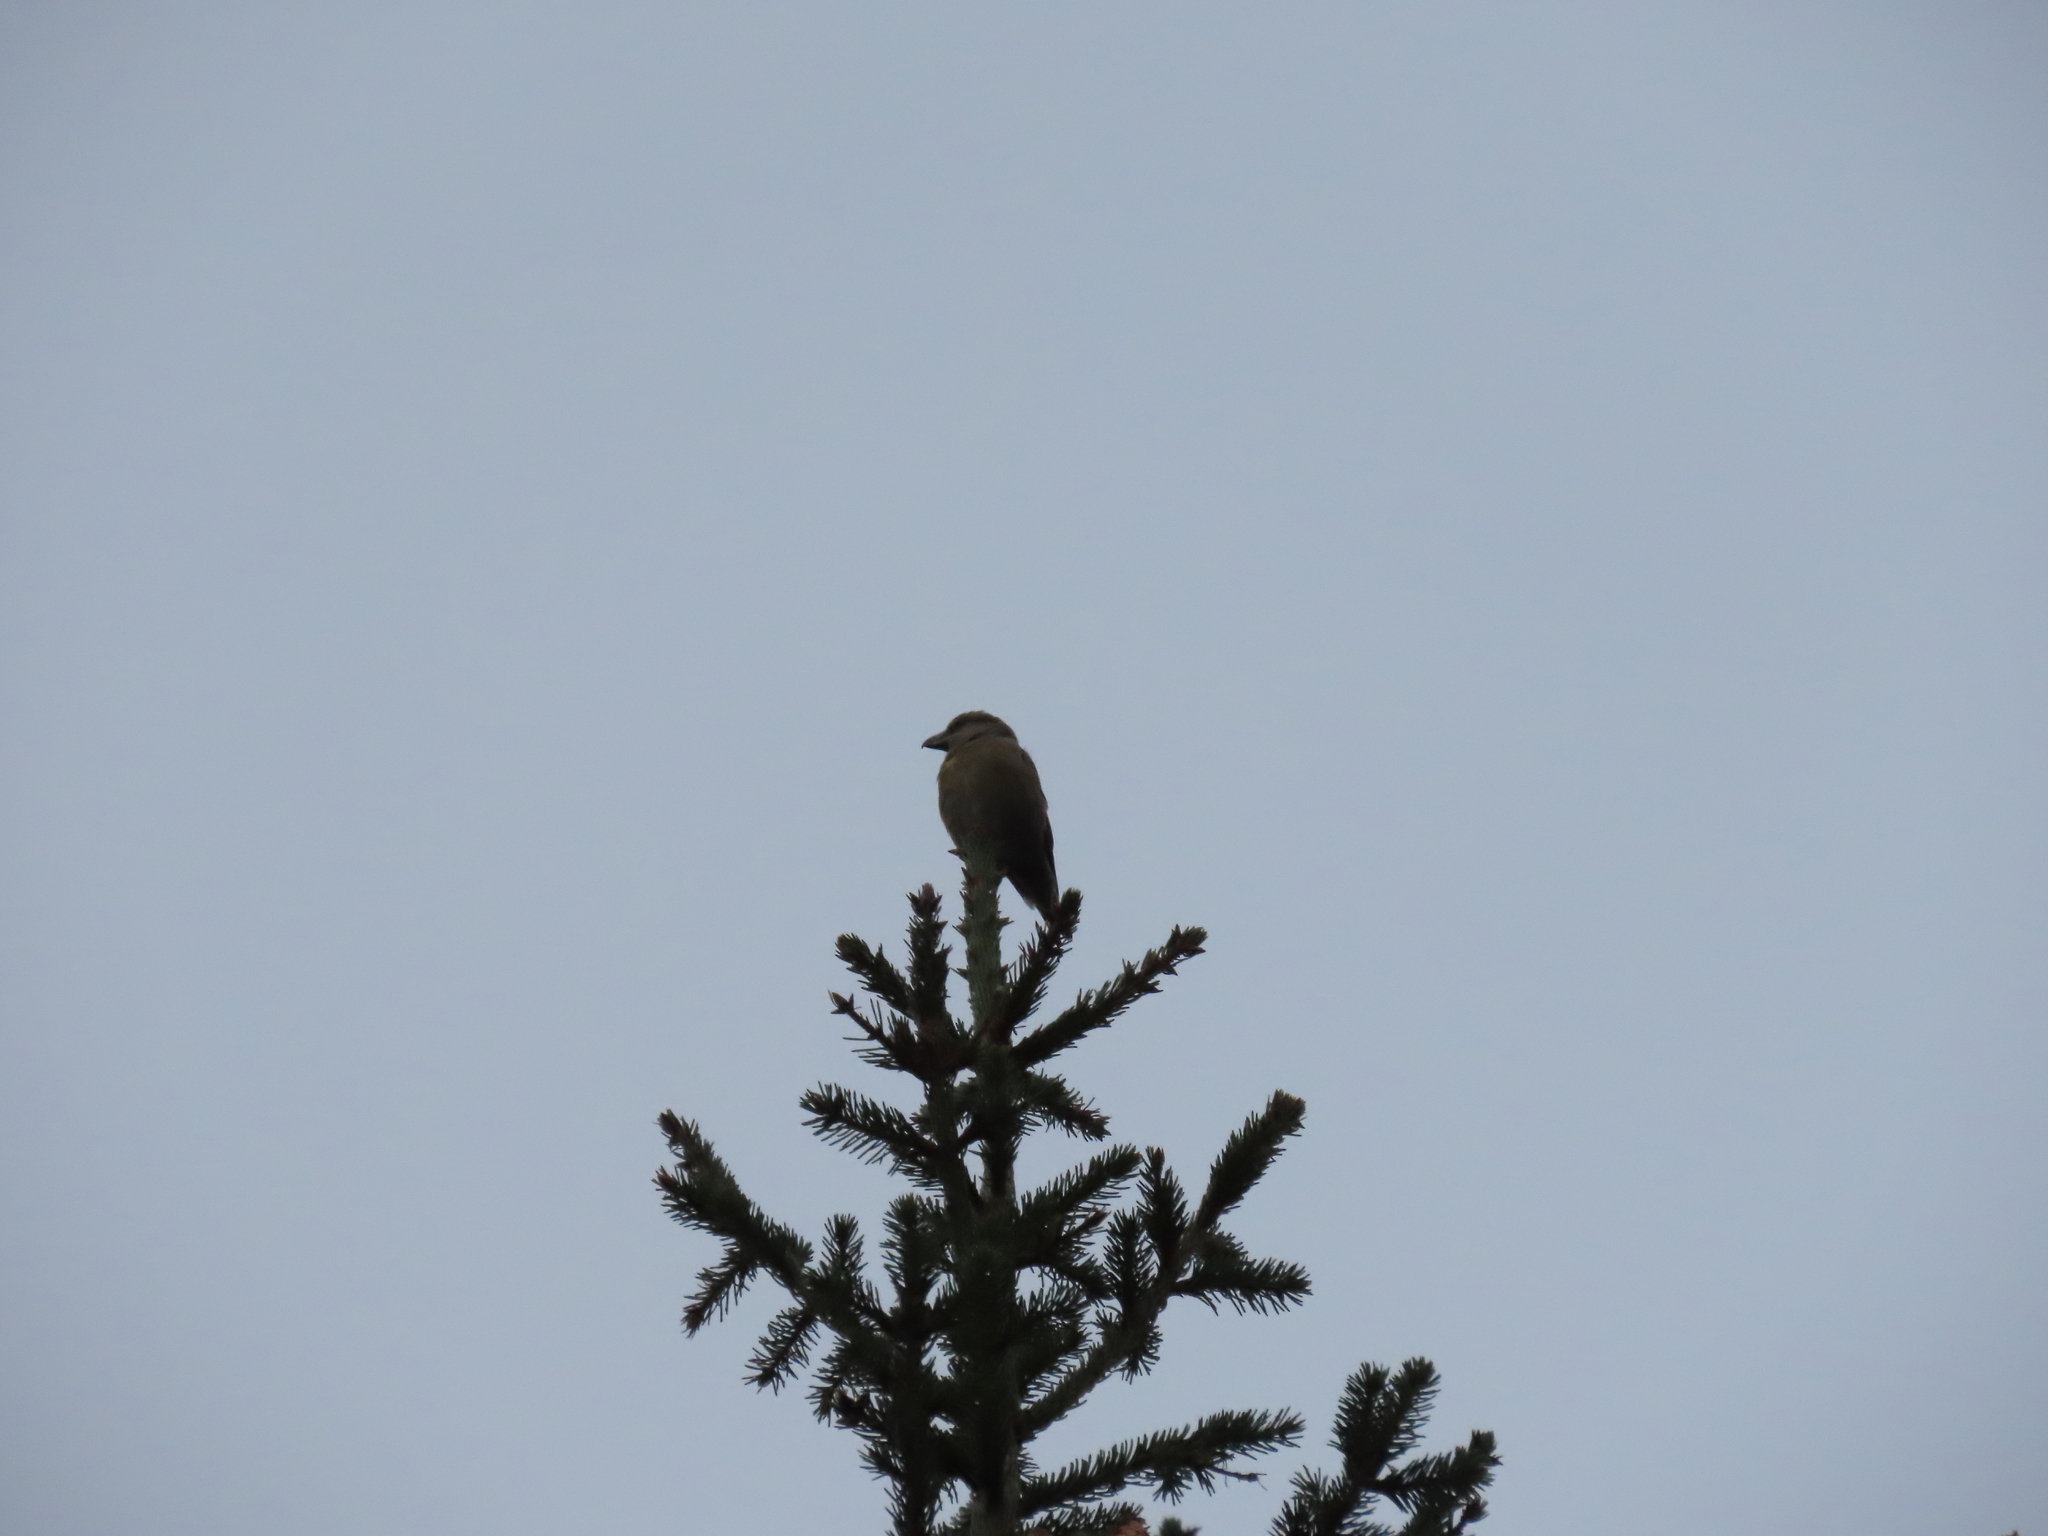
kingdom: Animalia
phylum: Chordata
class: Aves
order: Passeriformes
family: Fringillidae
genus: Loxia
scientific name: Loxia curvirostra
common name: Red crossbill
